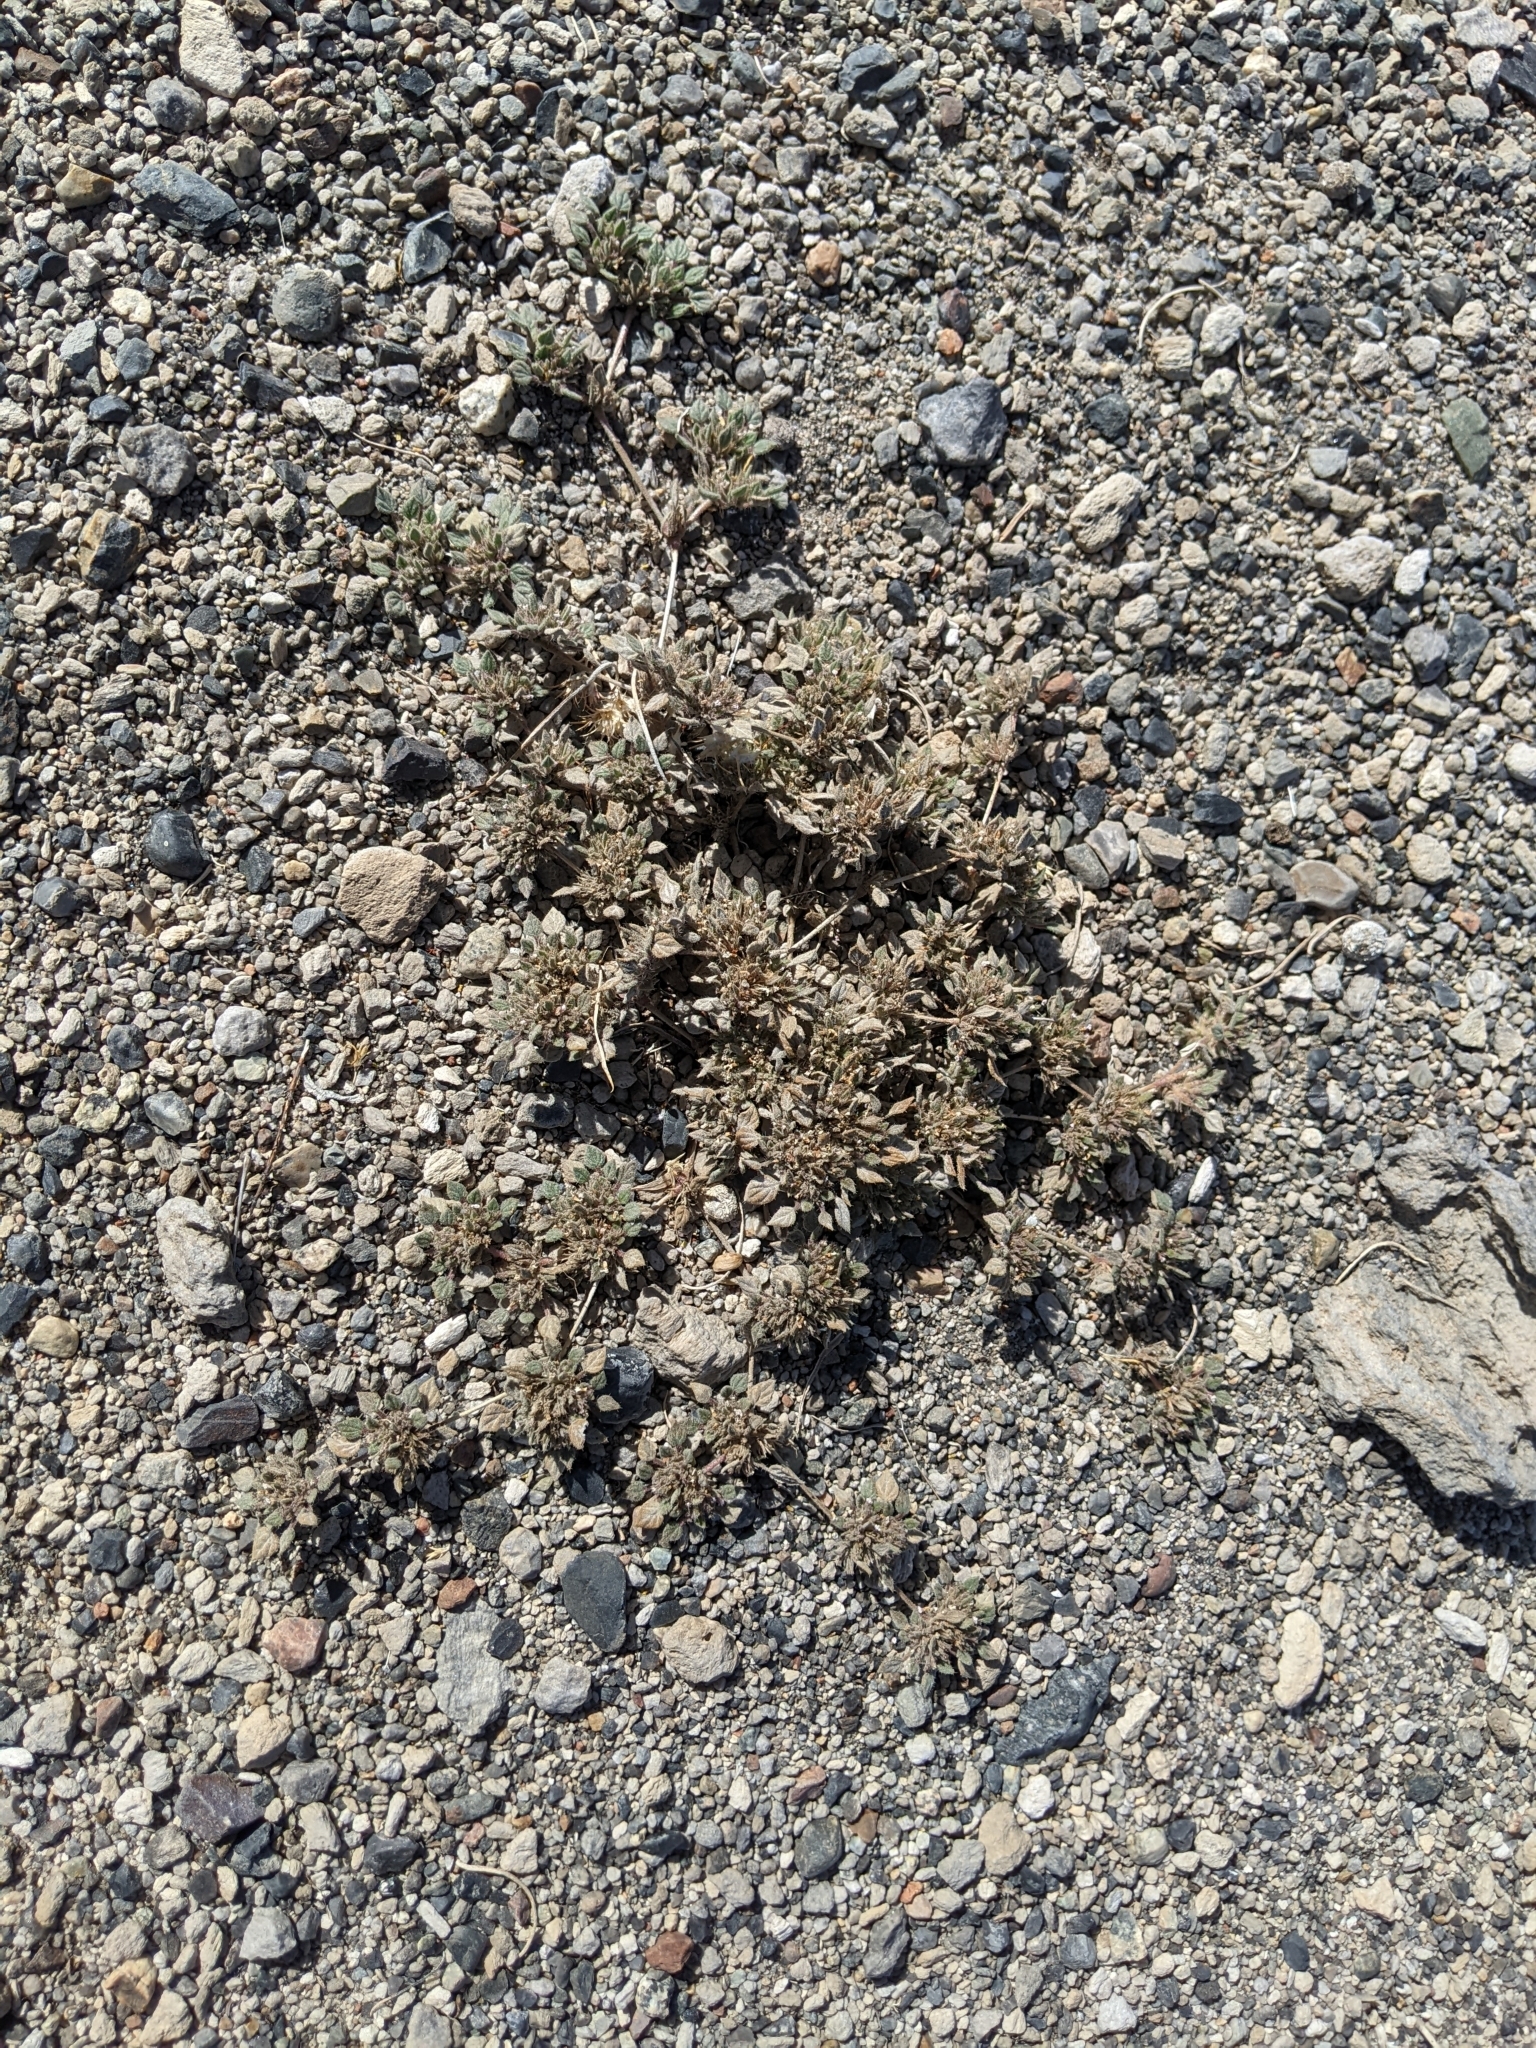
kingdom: Plantae
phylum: Tracheophyta
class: Magnoliopsida
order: Boraginales
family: Ehretiaceae
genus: Tiquilia
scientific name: Tiquilia nuttallii
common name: Rosette tiquilia
